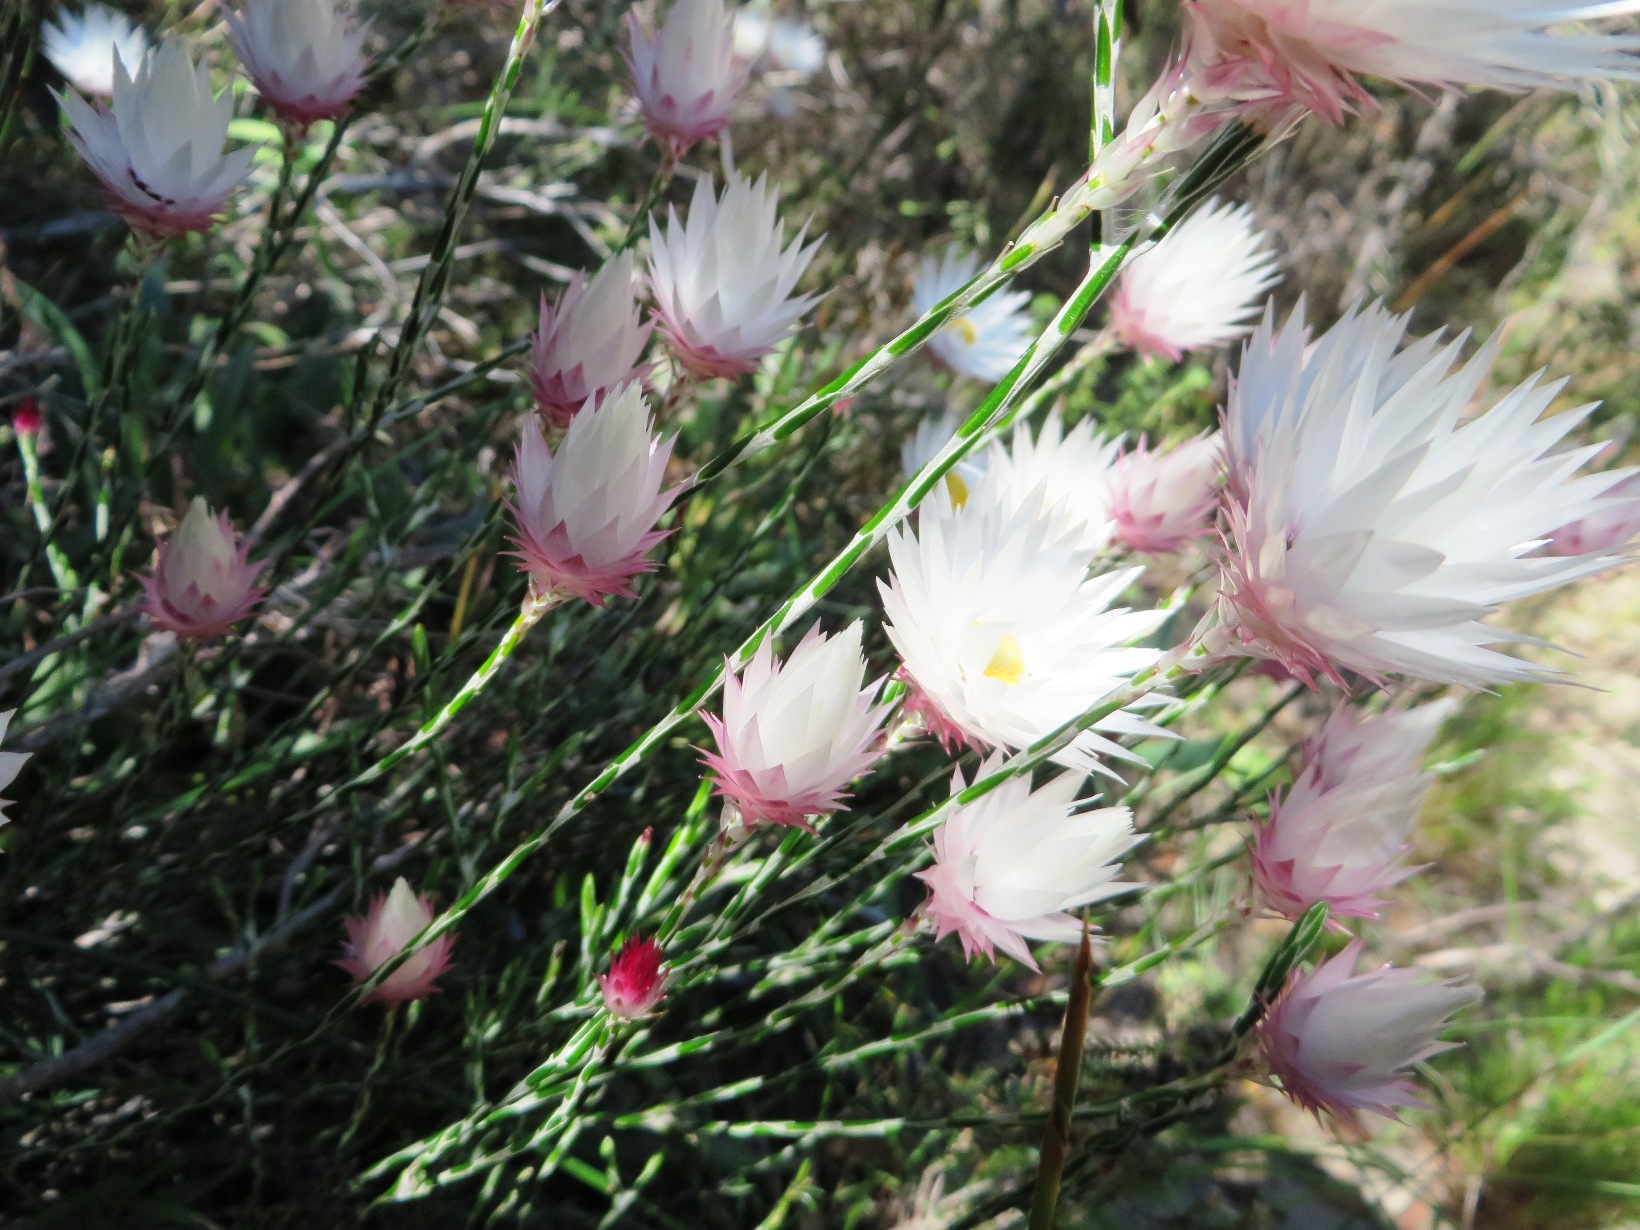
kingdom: Plantae
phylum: Tracheophyta
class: Magnoliopsida
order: Asterales
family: Asteraceae
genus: Edmondia
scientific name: Edmondia pinifolia
